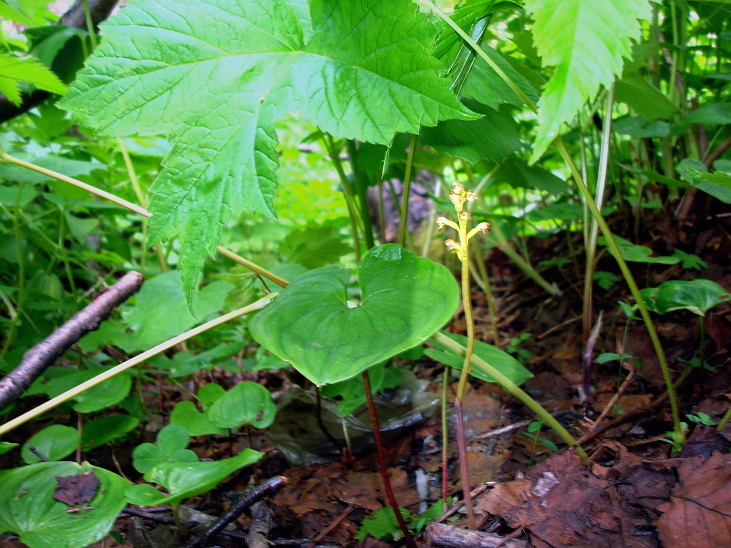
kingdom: Plantae
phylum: Tracheophyta
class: Liliopsida
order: Asparagales
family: Orchidaceae
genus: Corallorhiza
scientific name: Corallorhiza trifida
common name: Yellow coralroot
